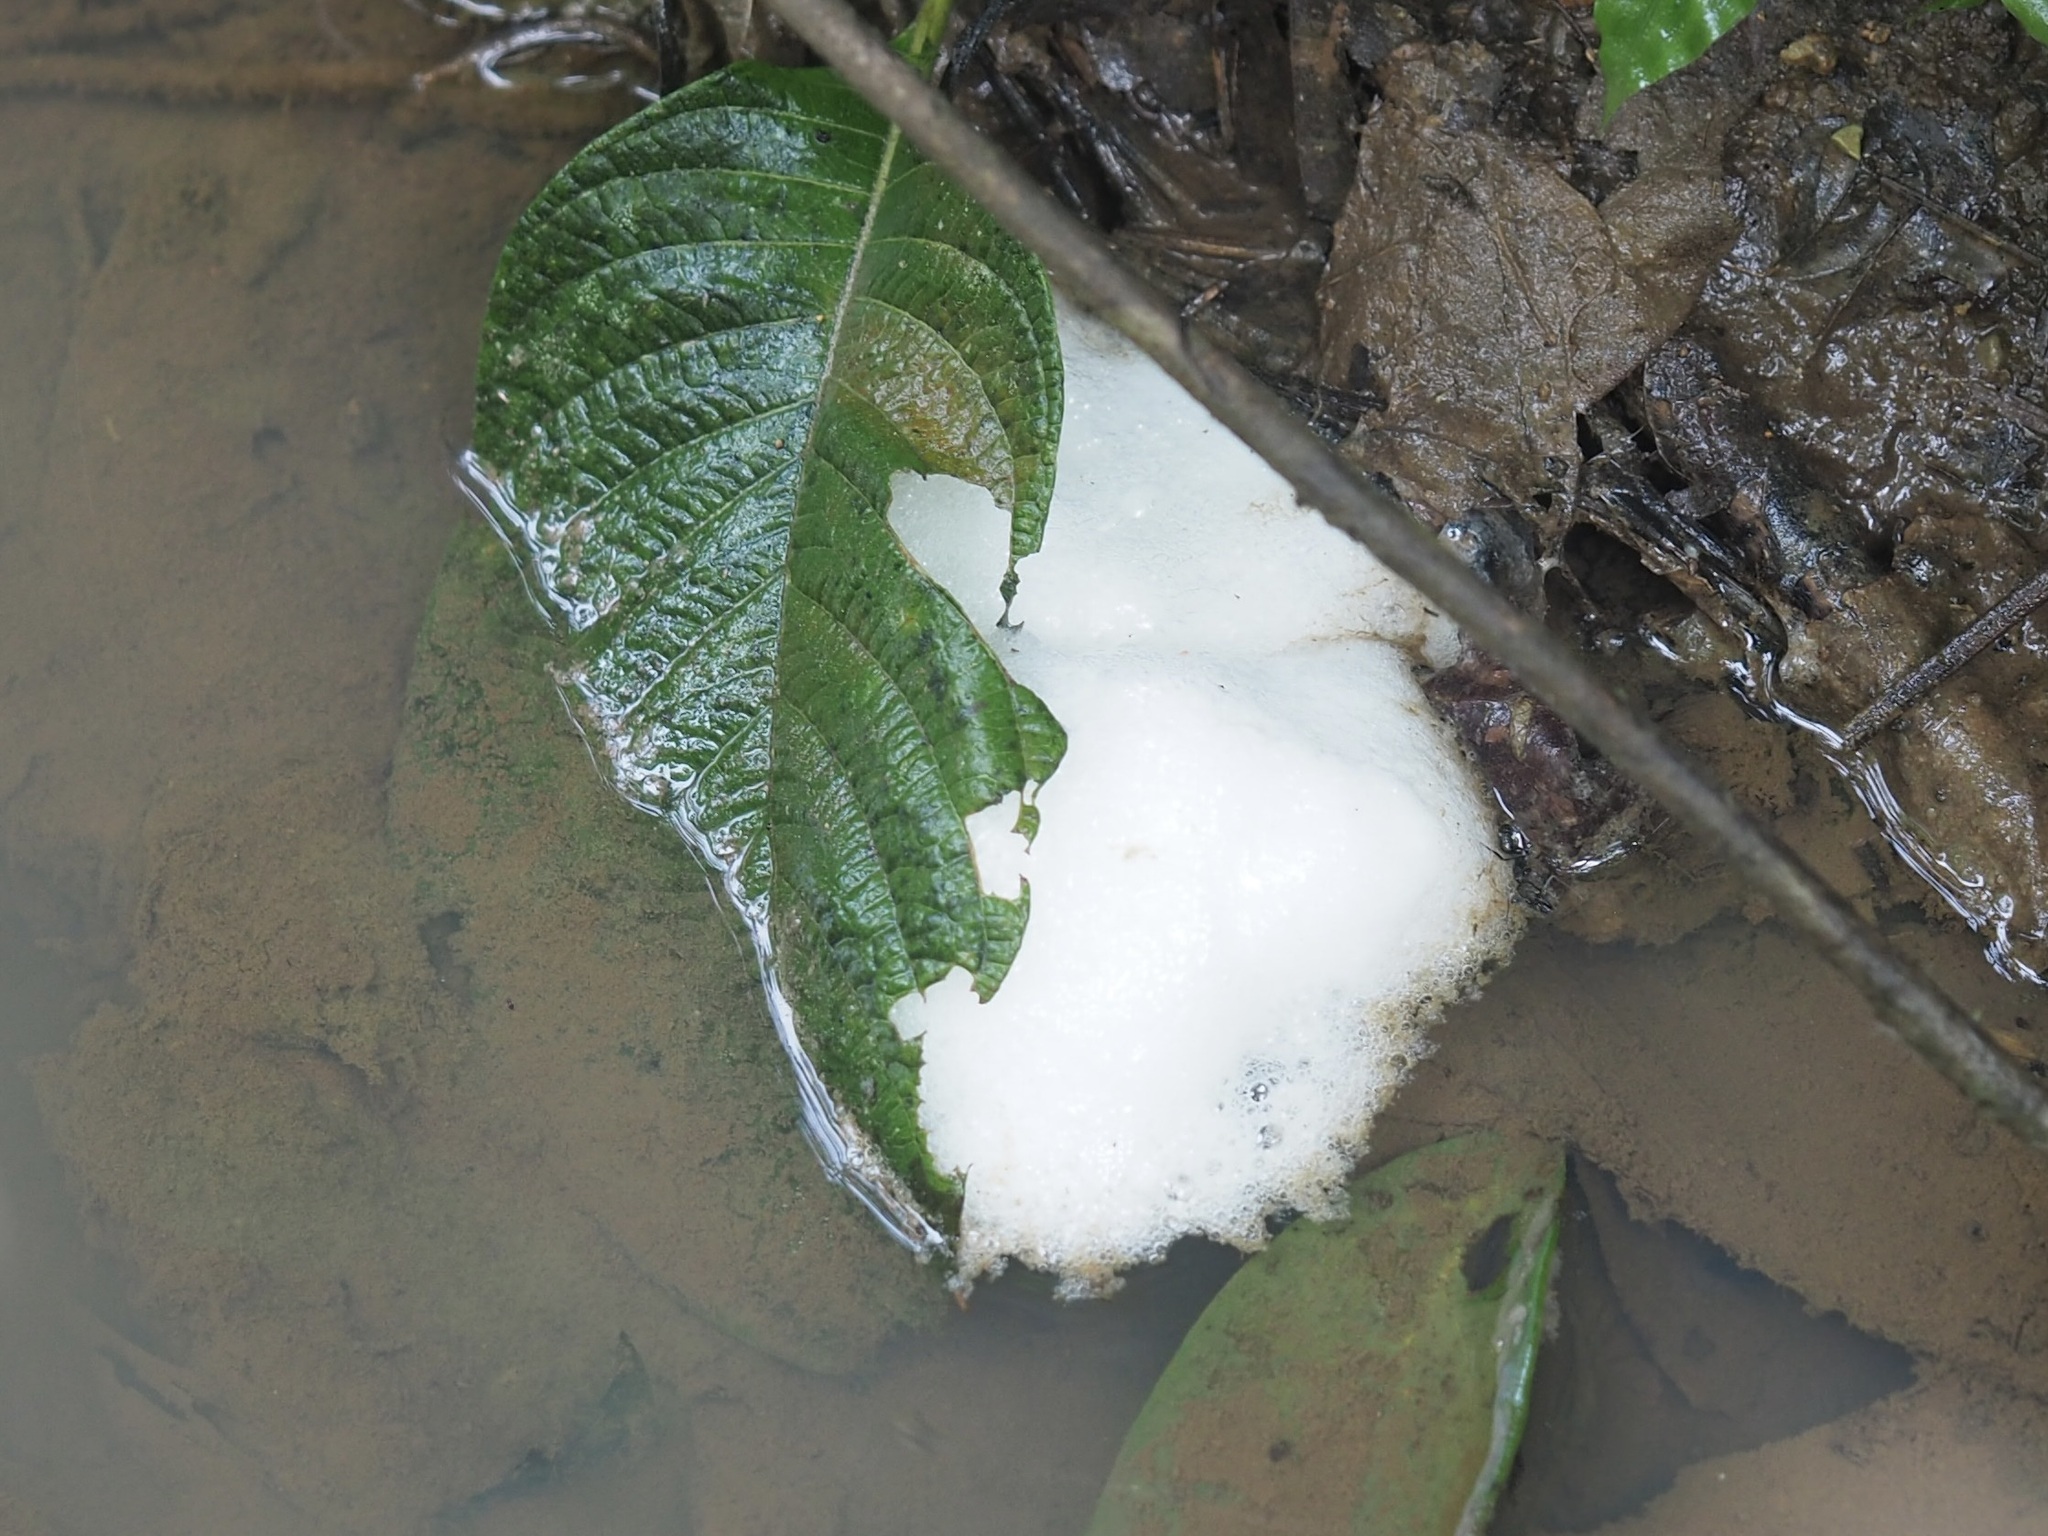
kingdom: Animalia
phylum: Chordata
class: Amphibia
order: Anura
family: Leptodactylidae
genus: Engystomops
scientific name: Engystomops pustulosus
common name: Tungara frog
